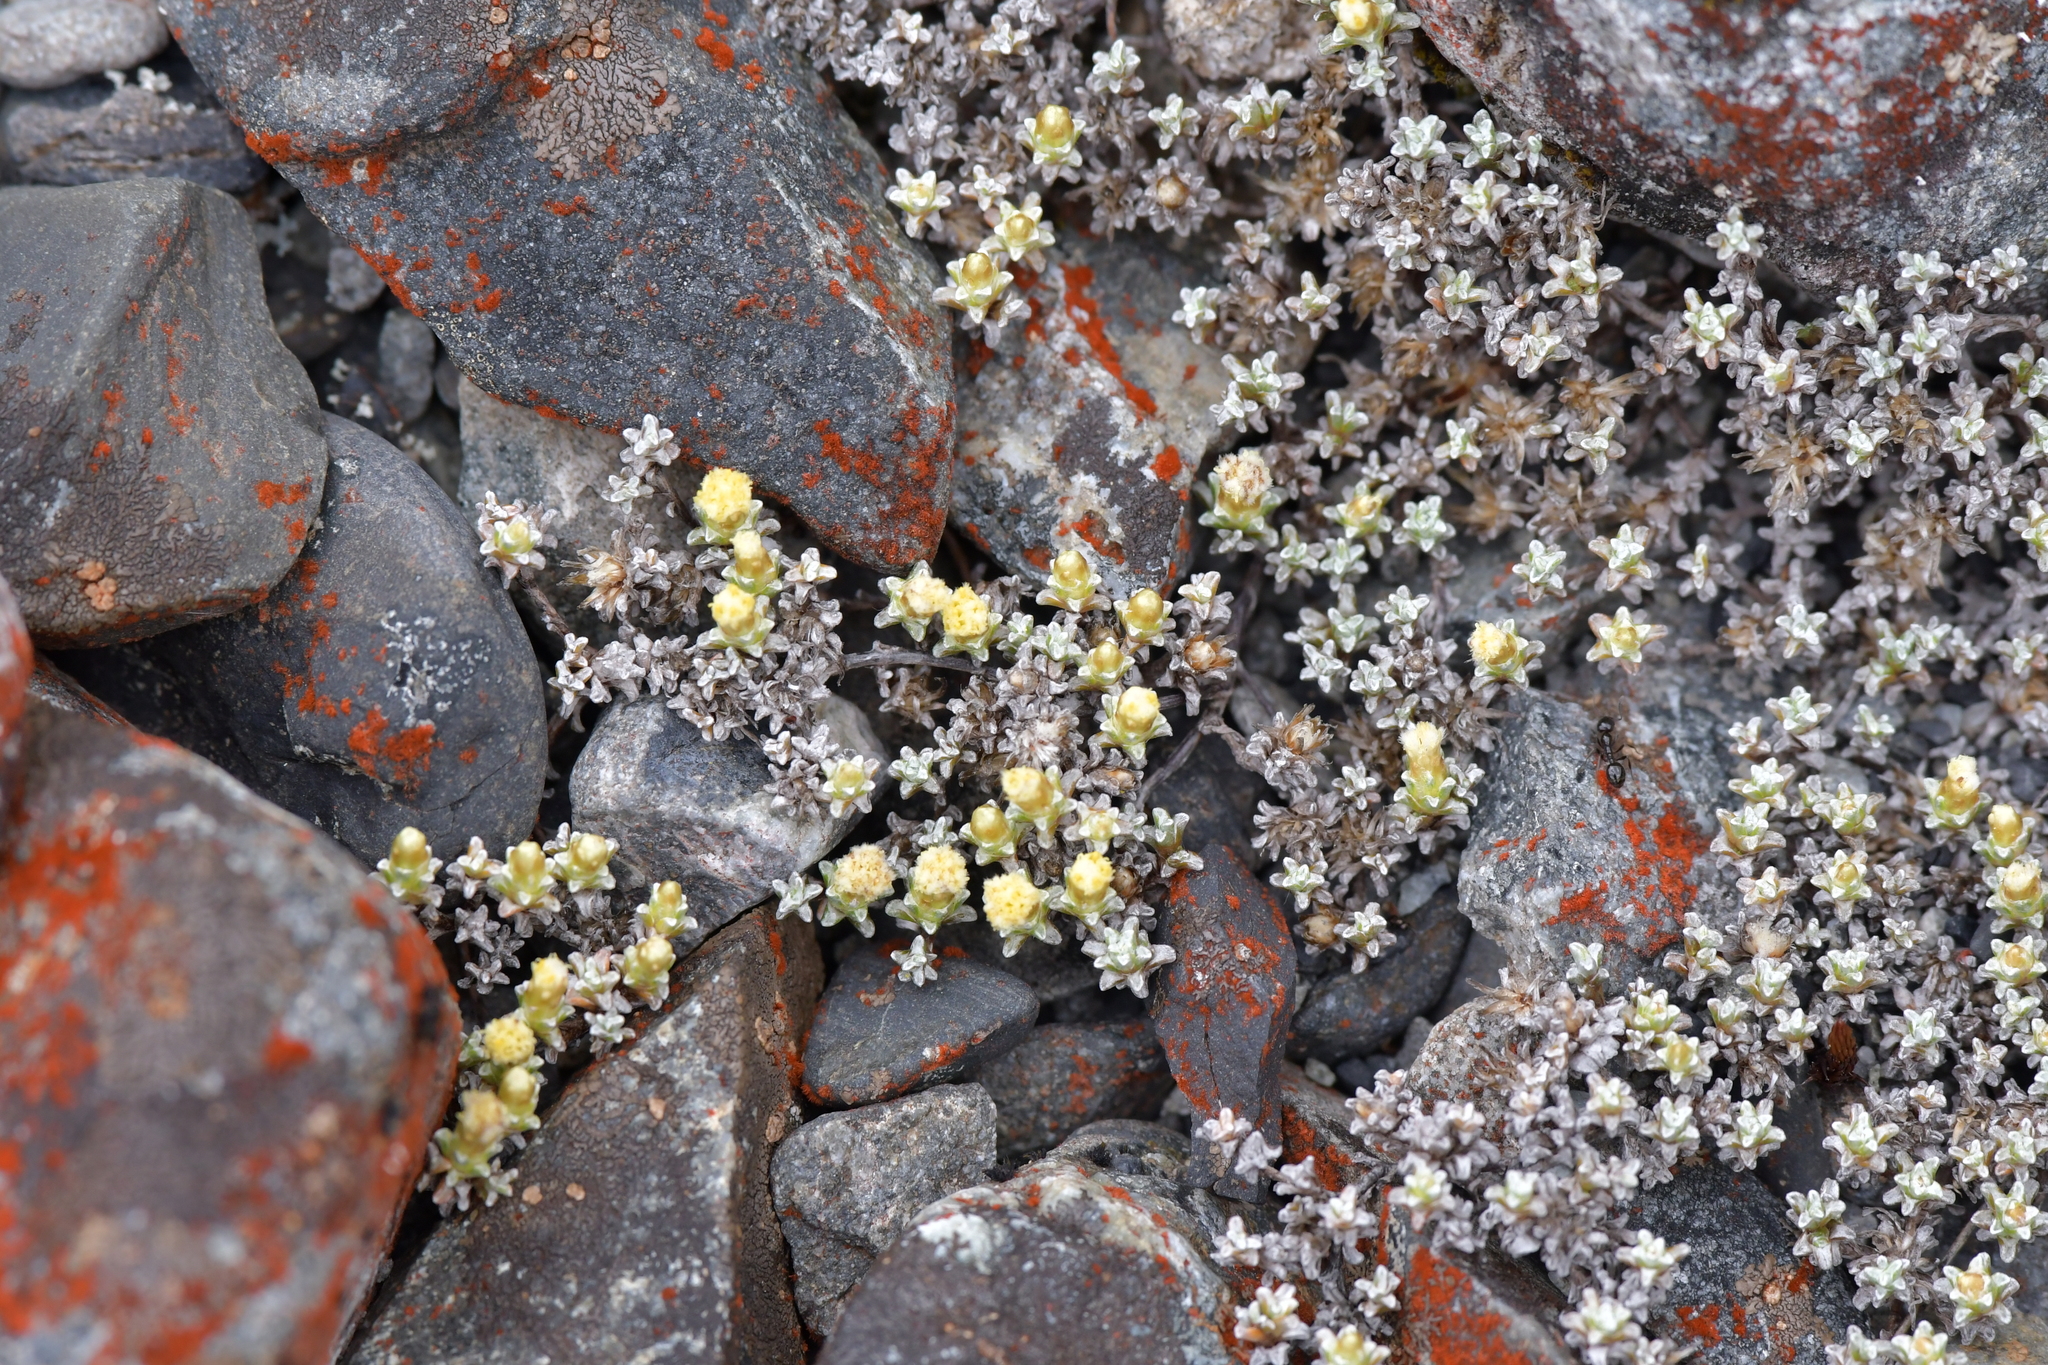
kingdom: Plantae
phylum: Tracheophyta
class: Magnoliopsida
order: Asterales
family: Asteraceae
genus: Raoulia
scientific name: Raoulia tenuicaulis
